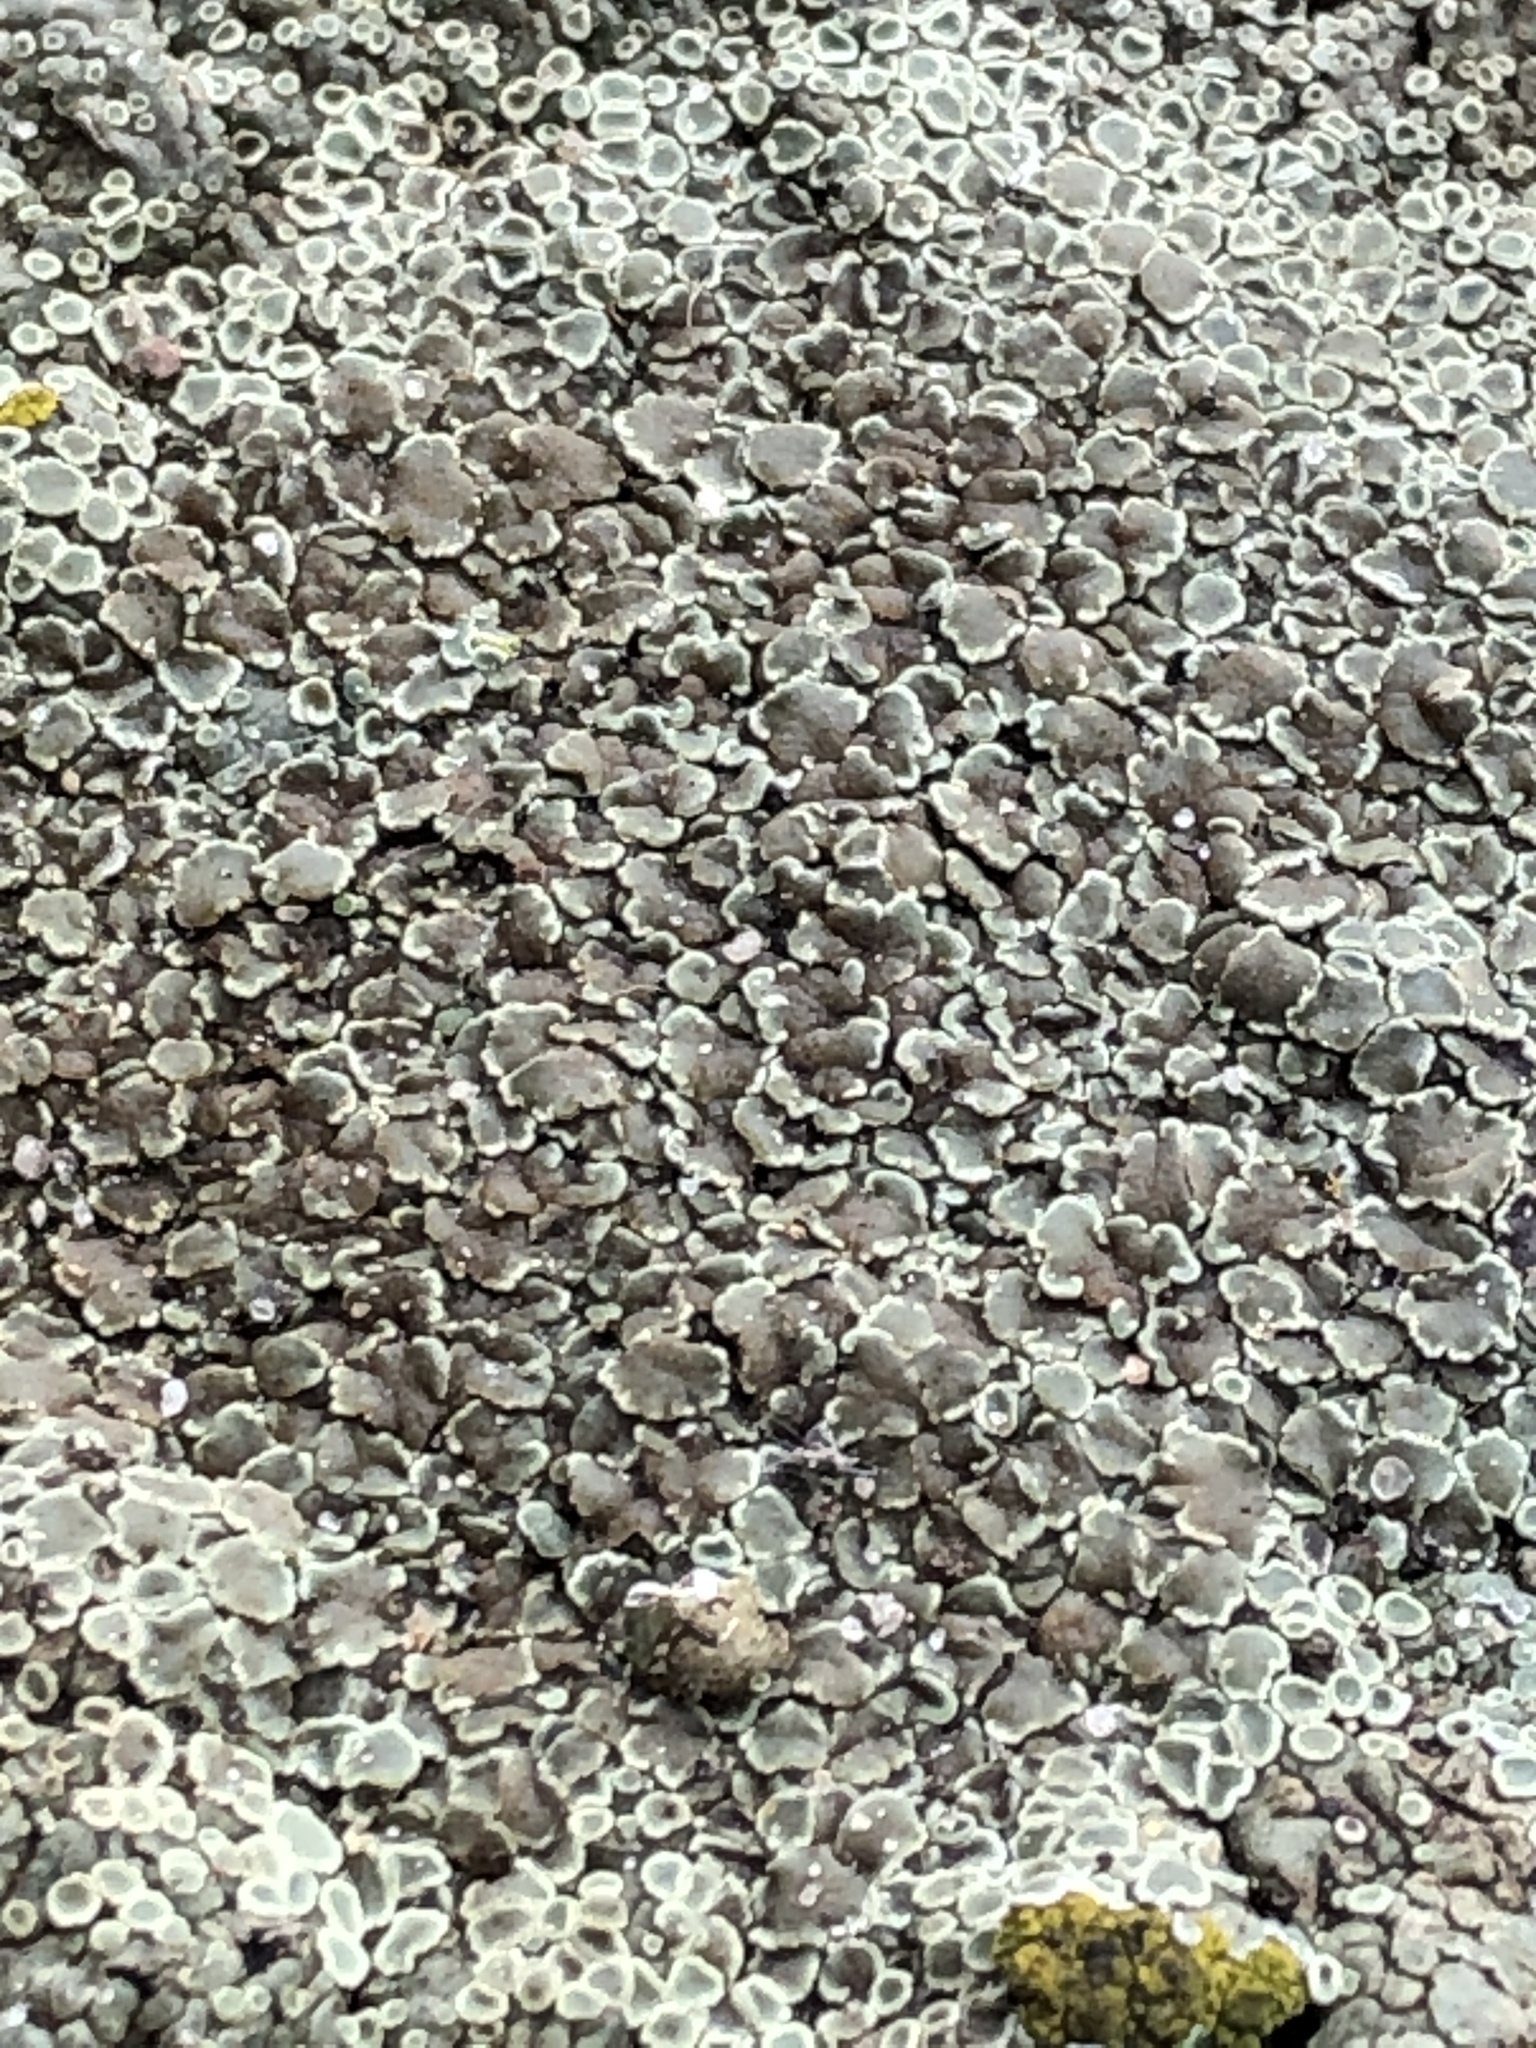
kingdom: Fungi
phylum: Ascomycota
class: Lecanoromycetes
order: Lecanorales
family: Lecanoraceae
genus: Protoparmeliopsis
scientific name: Protoparmeliopsis muralis
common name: Stonewall rim lichen
